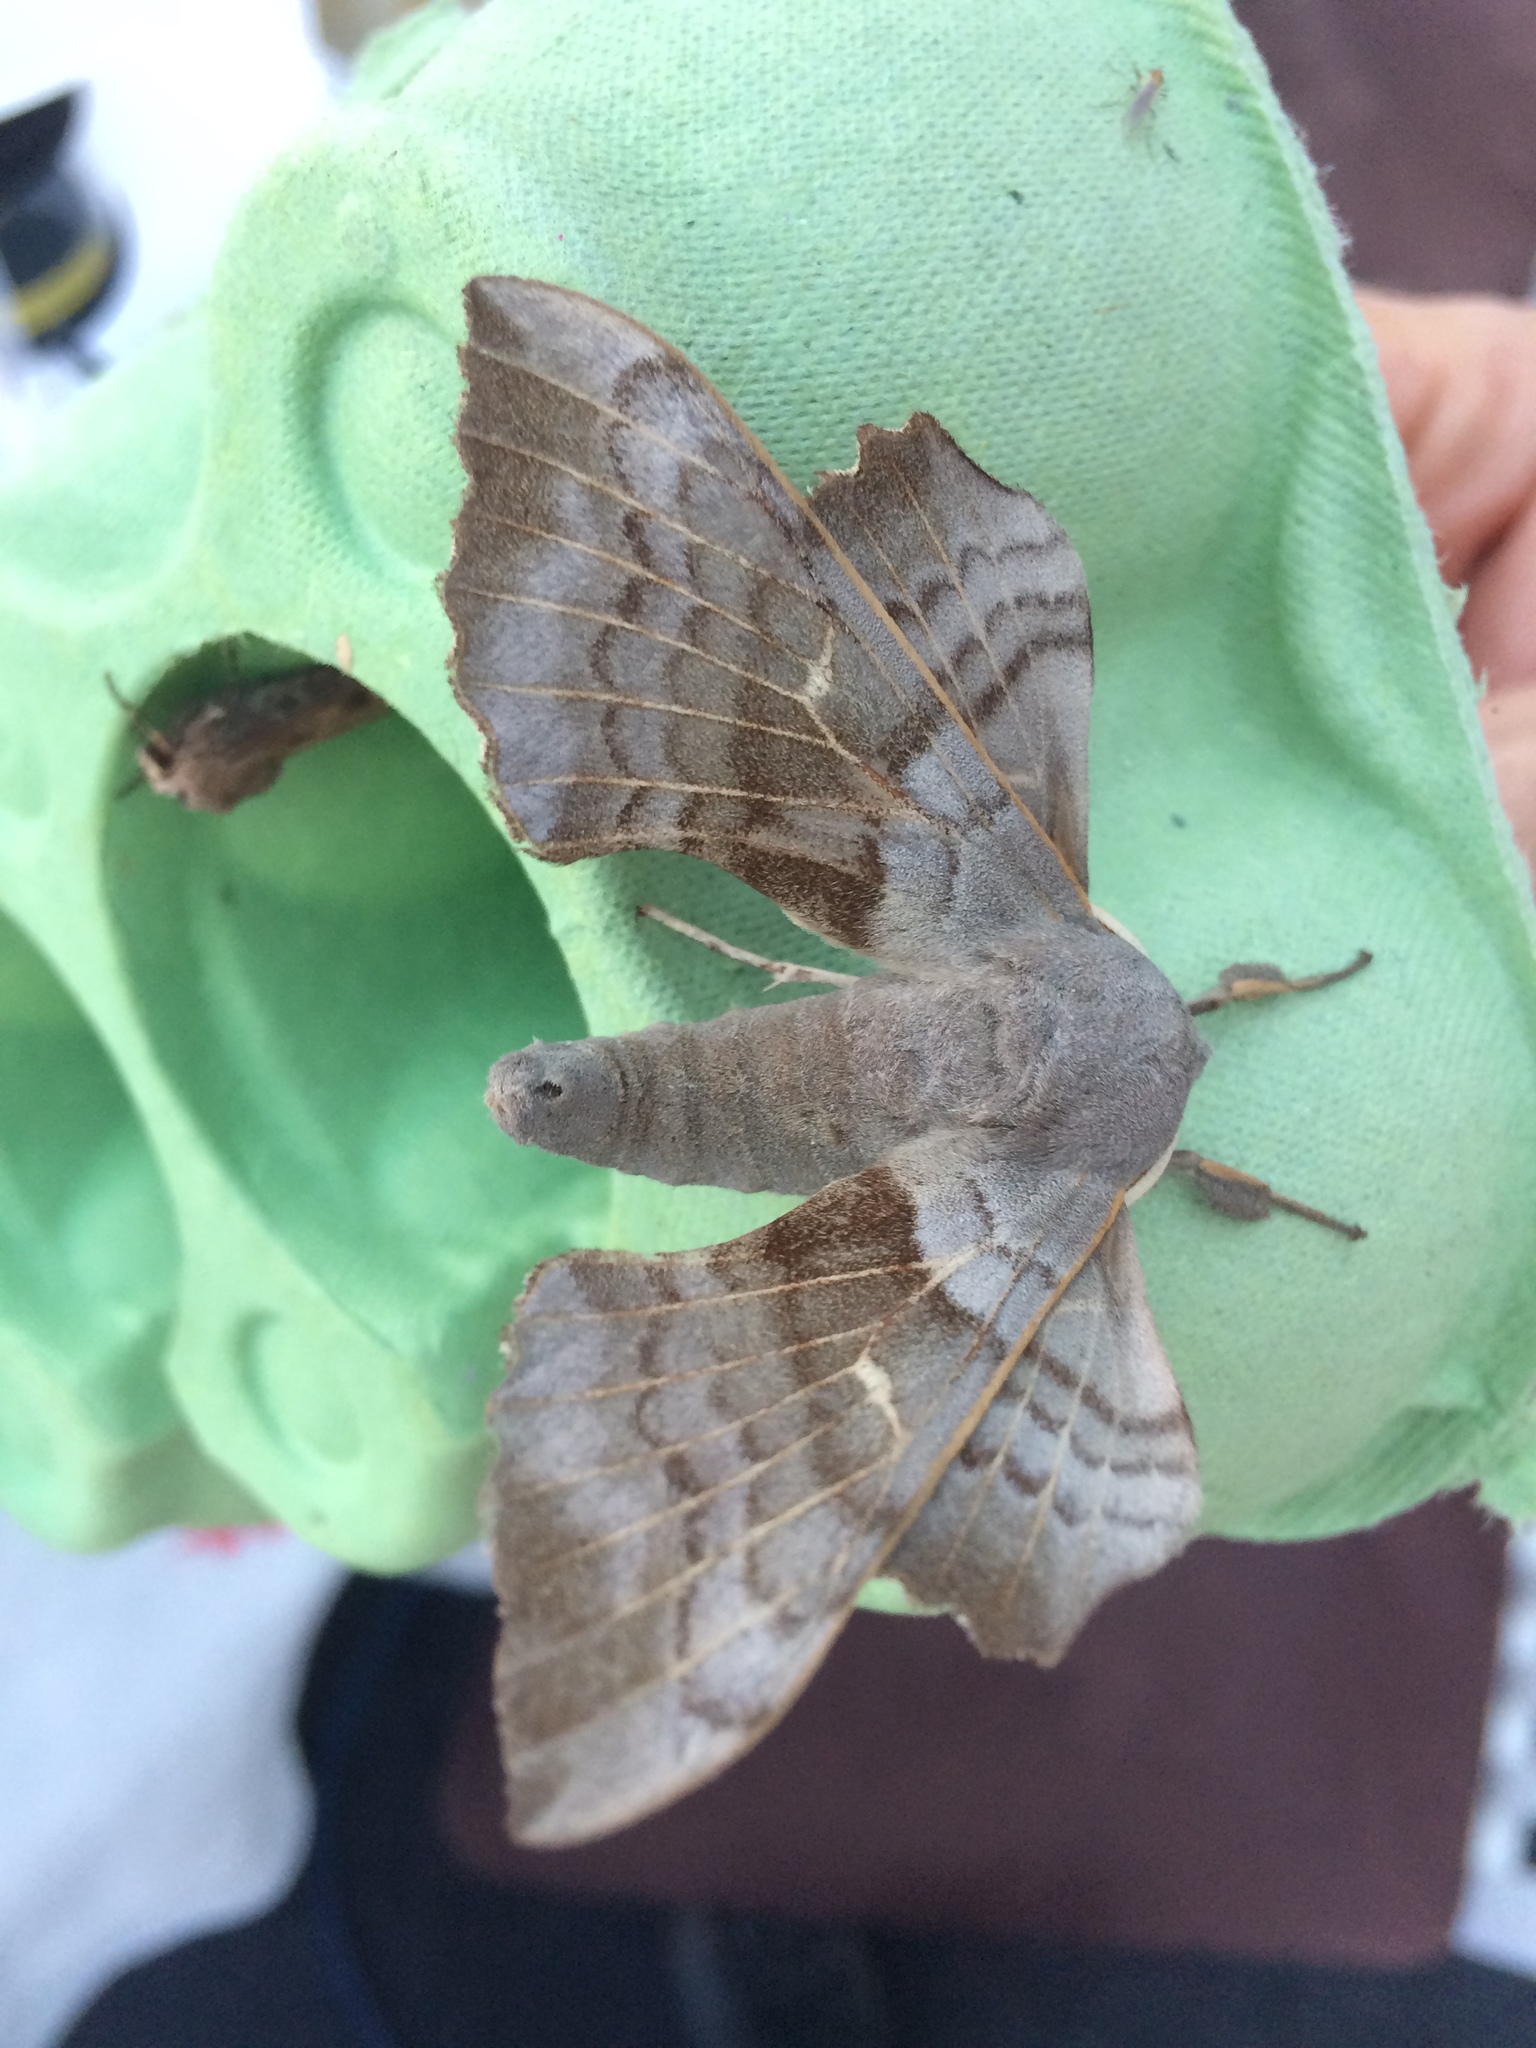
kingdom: Animalia
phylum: Arthropoda
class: Insecta
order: Lepidoptera
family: Sphingidae
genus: Laothoe
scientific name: Laothoe populi
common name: Poplar hawk-moth
